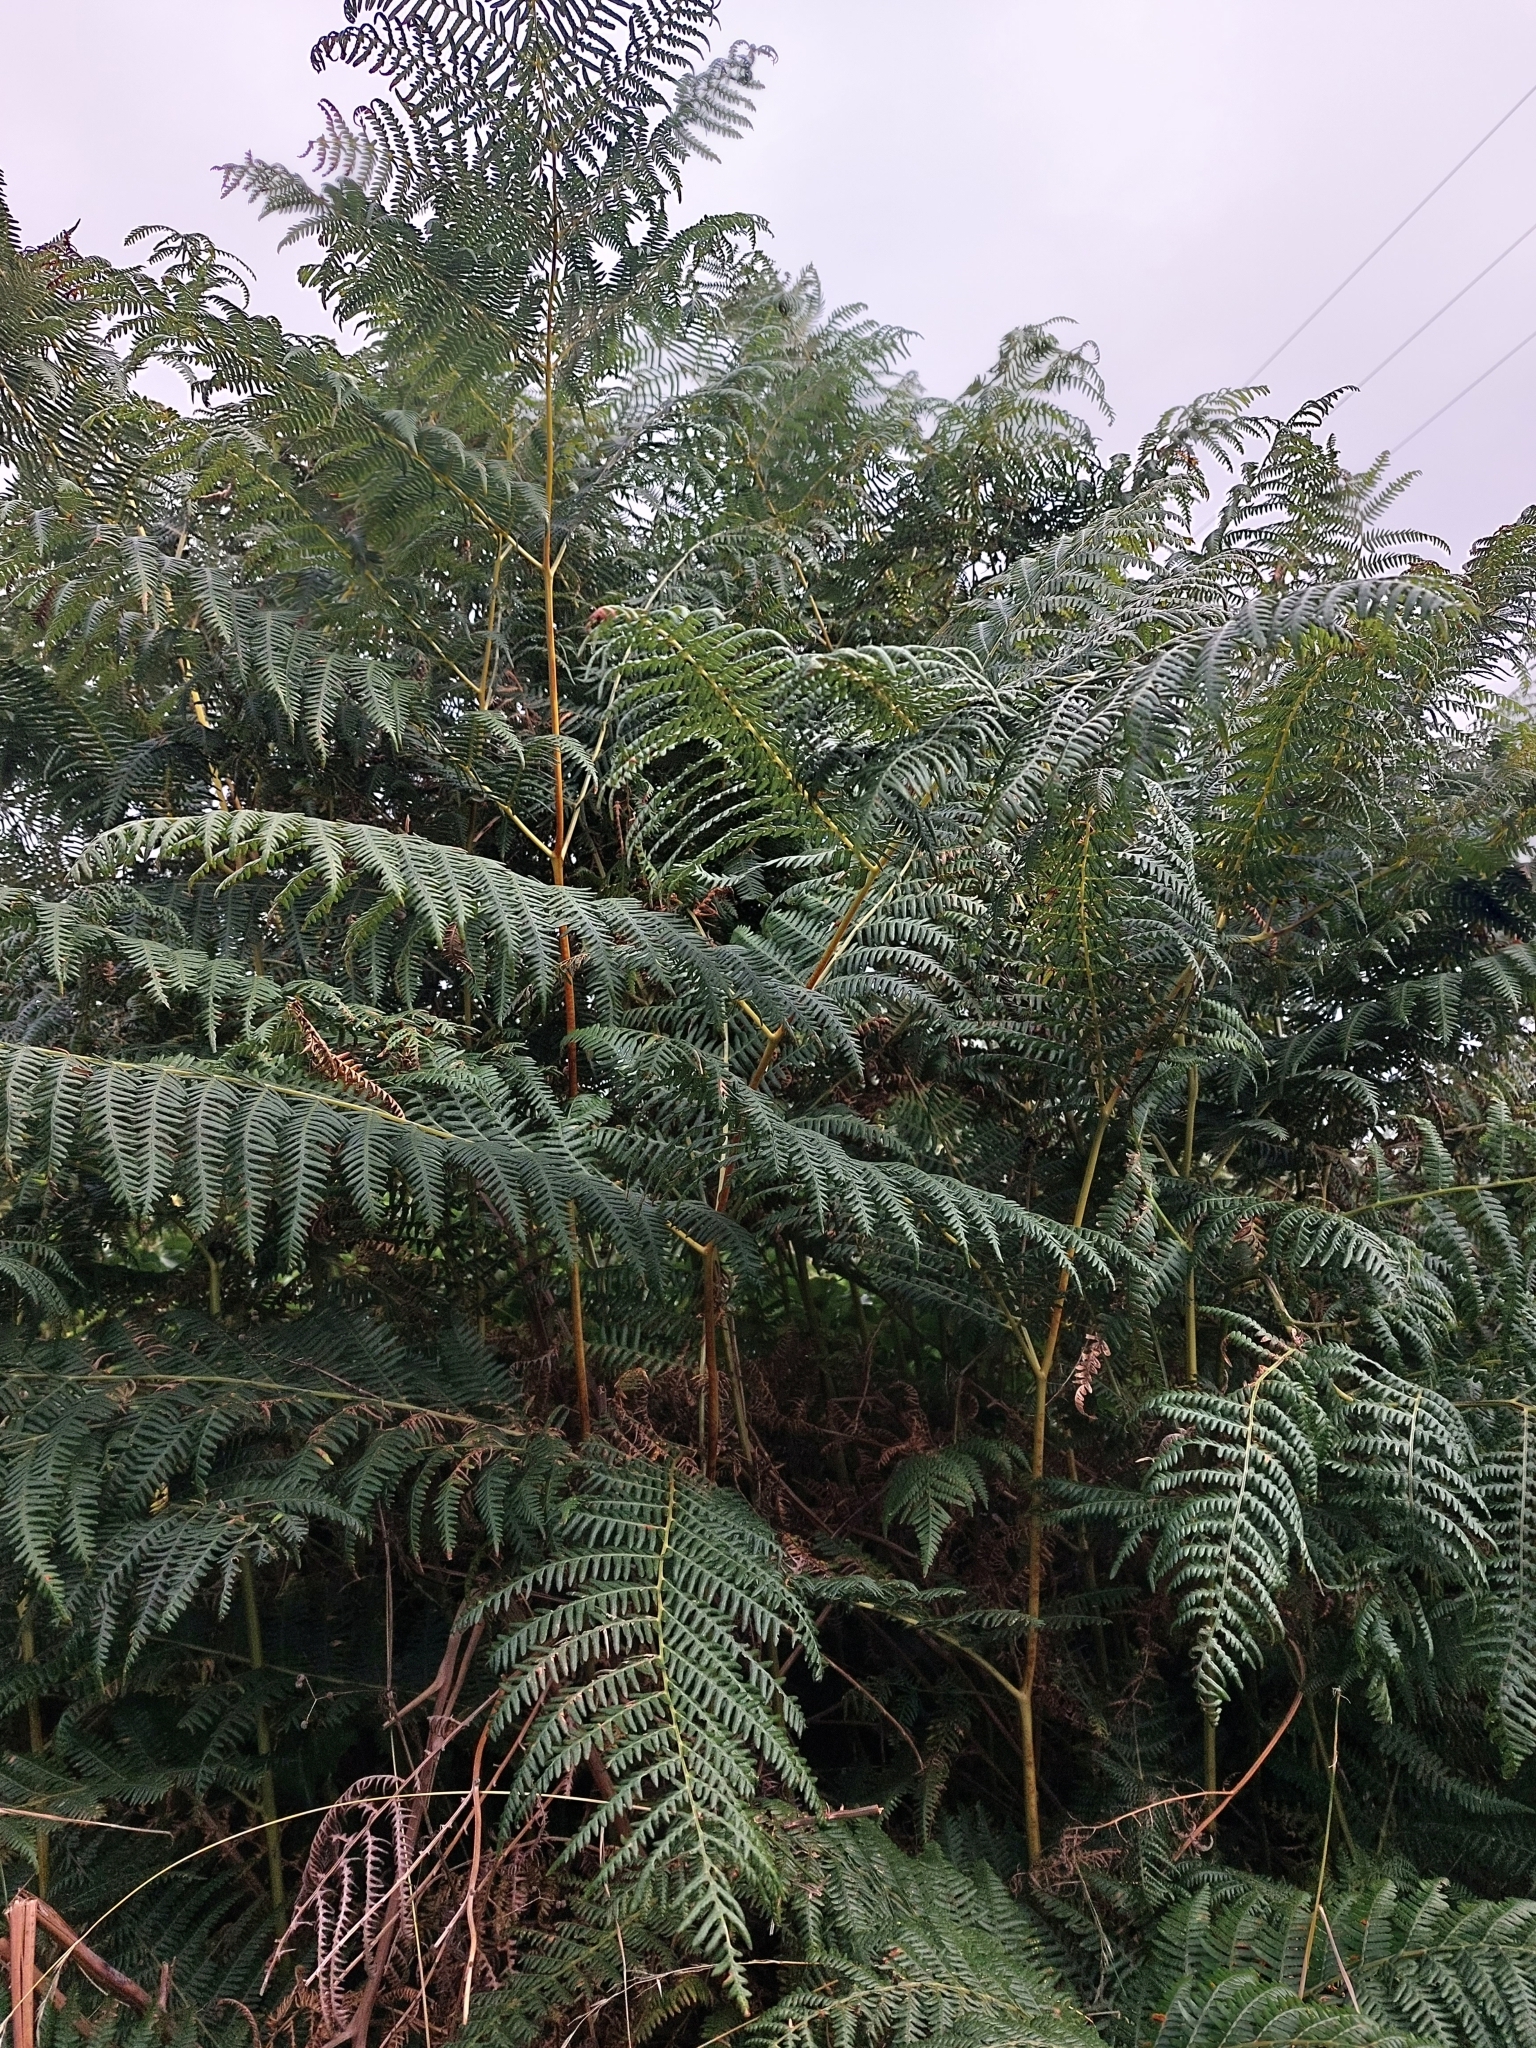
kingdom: Plantae
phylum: Tracheophyta
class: Polypodiopsida
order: Polypodiales
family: Dennstaedtiaceae
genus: Pteridium
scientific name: Pteridium aquilinum
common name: Bracken
